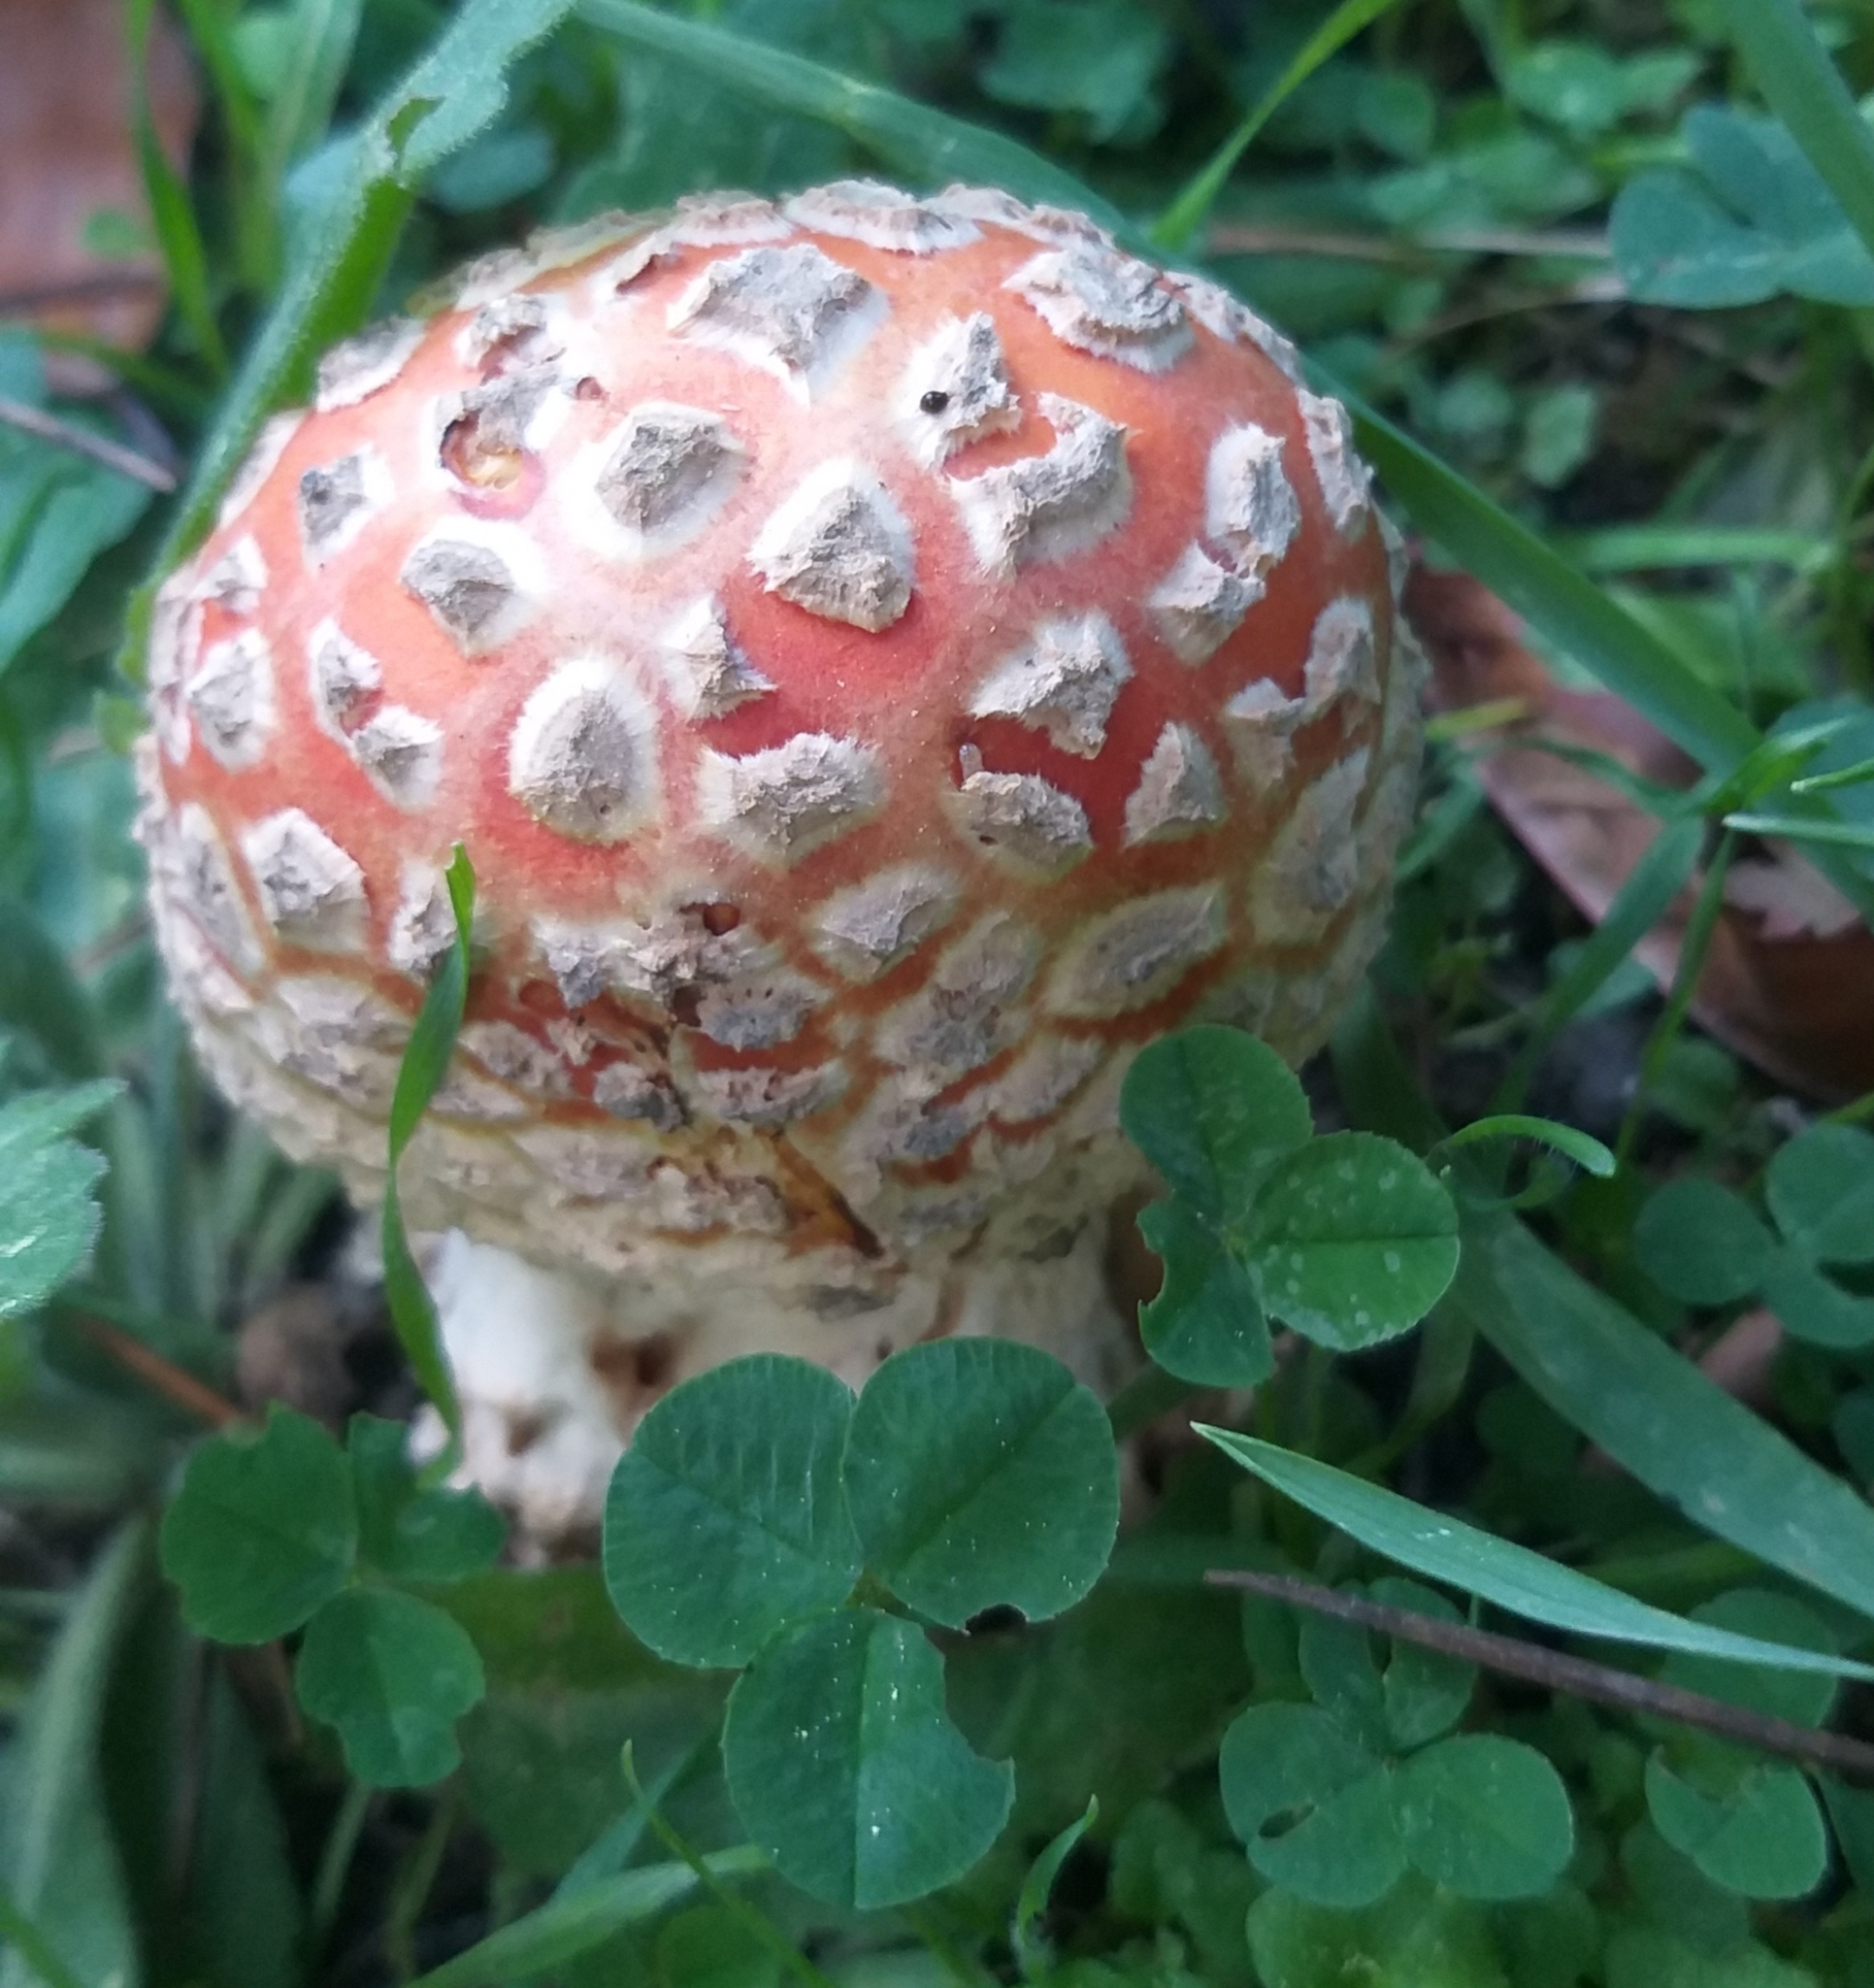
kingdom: Fungi
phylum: Basidiomycota
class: Agaricomycetes
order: Agaricales
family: Amanitaceae
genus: Amanita
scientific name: Amanita muscaria
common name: Fly agaric
